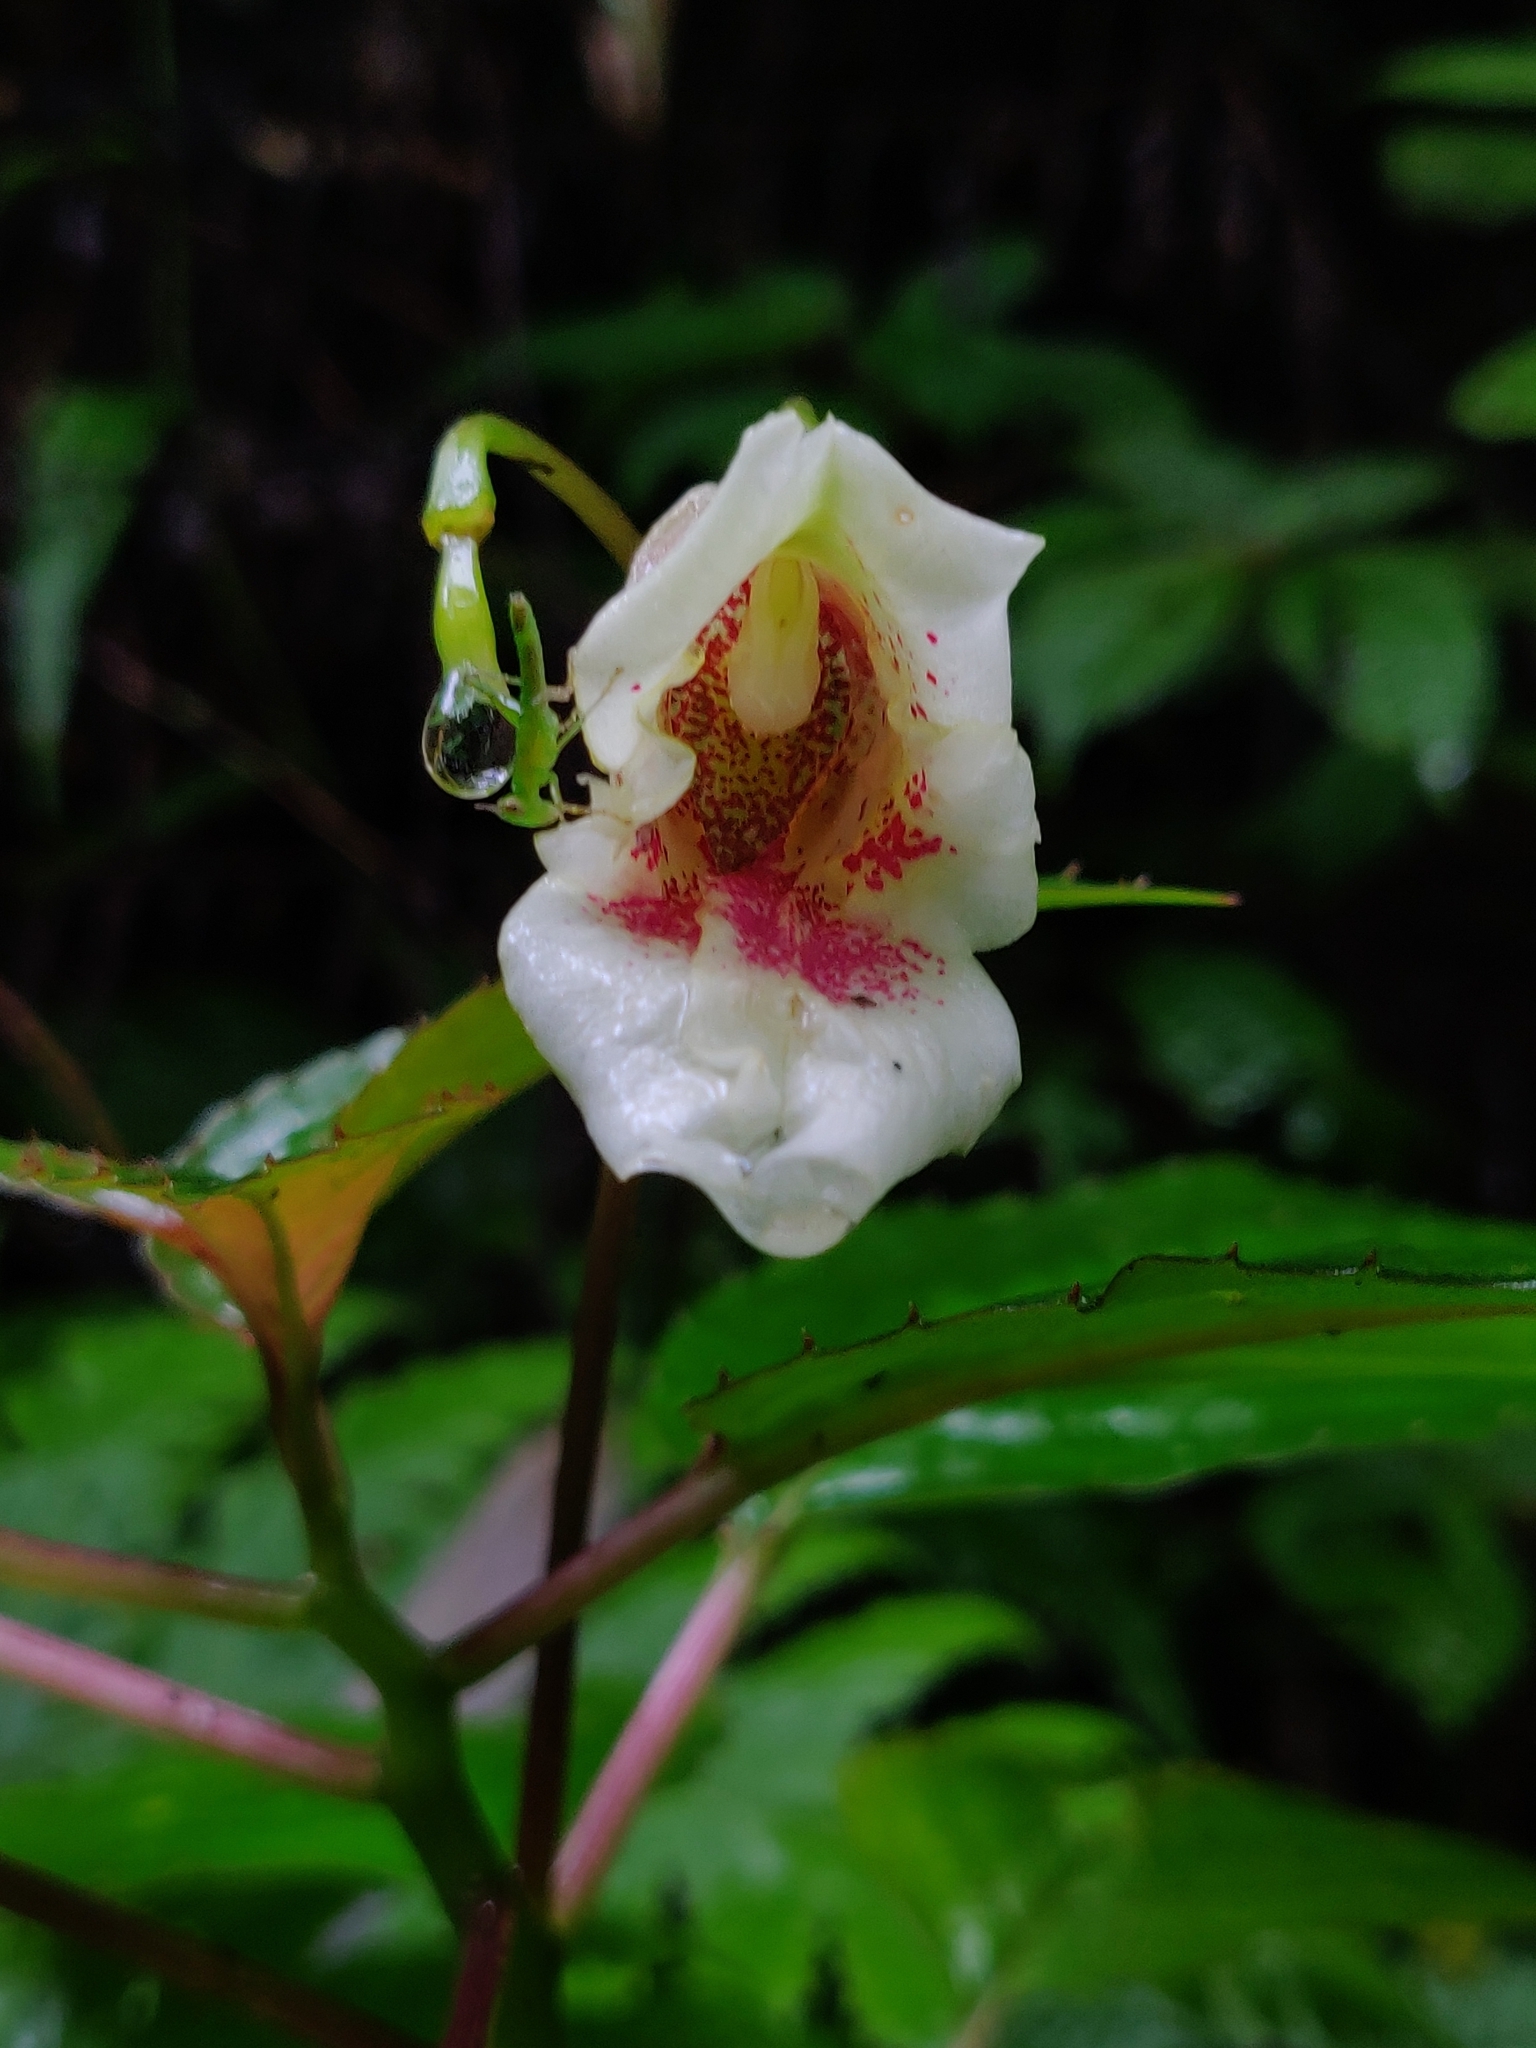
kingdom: Plantae
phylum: Tracheophyta
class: Magnoliopsida
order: Ericales
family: Balsaminaceae
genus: Impatiens
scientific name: Impatiens disotis
